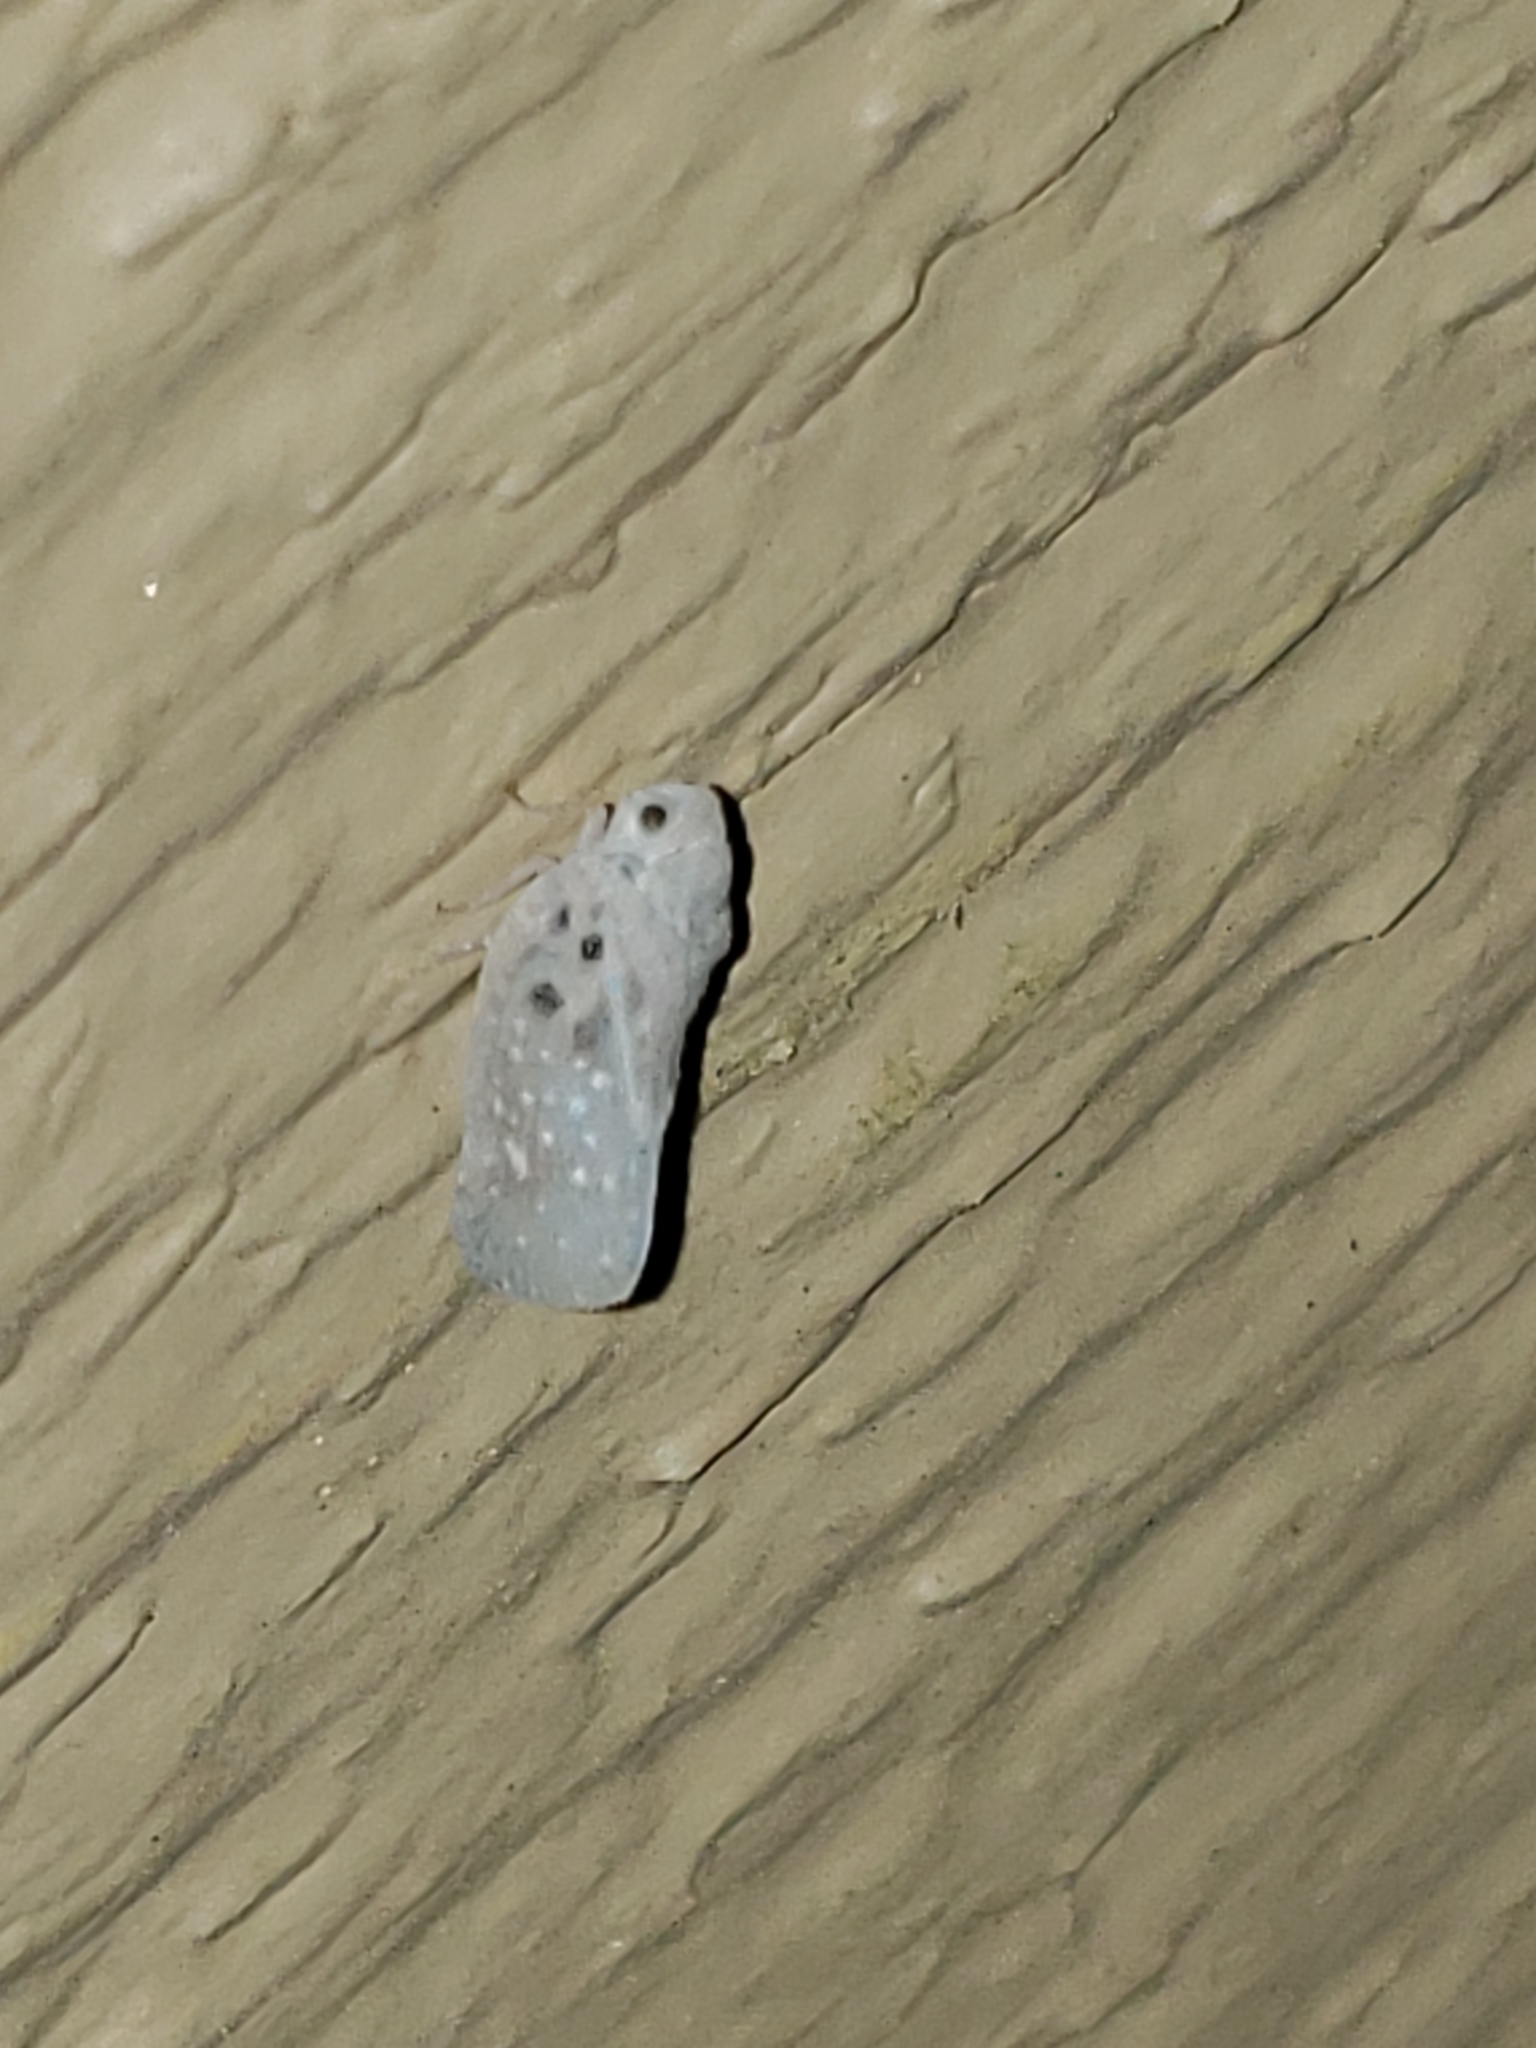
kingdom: Animalia
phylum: Arthropoda
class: Insecta
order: Hemiptera
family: Flatidae
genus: Metcalfa
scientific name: Metcalfa pruinosa
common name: Citrus flatid planthopper
